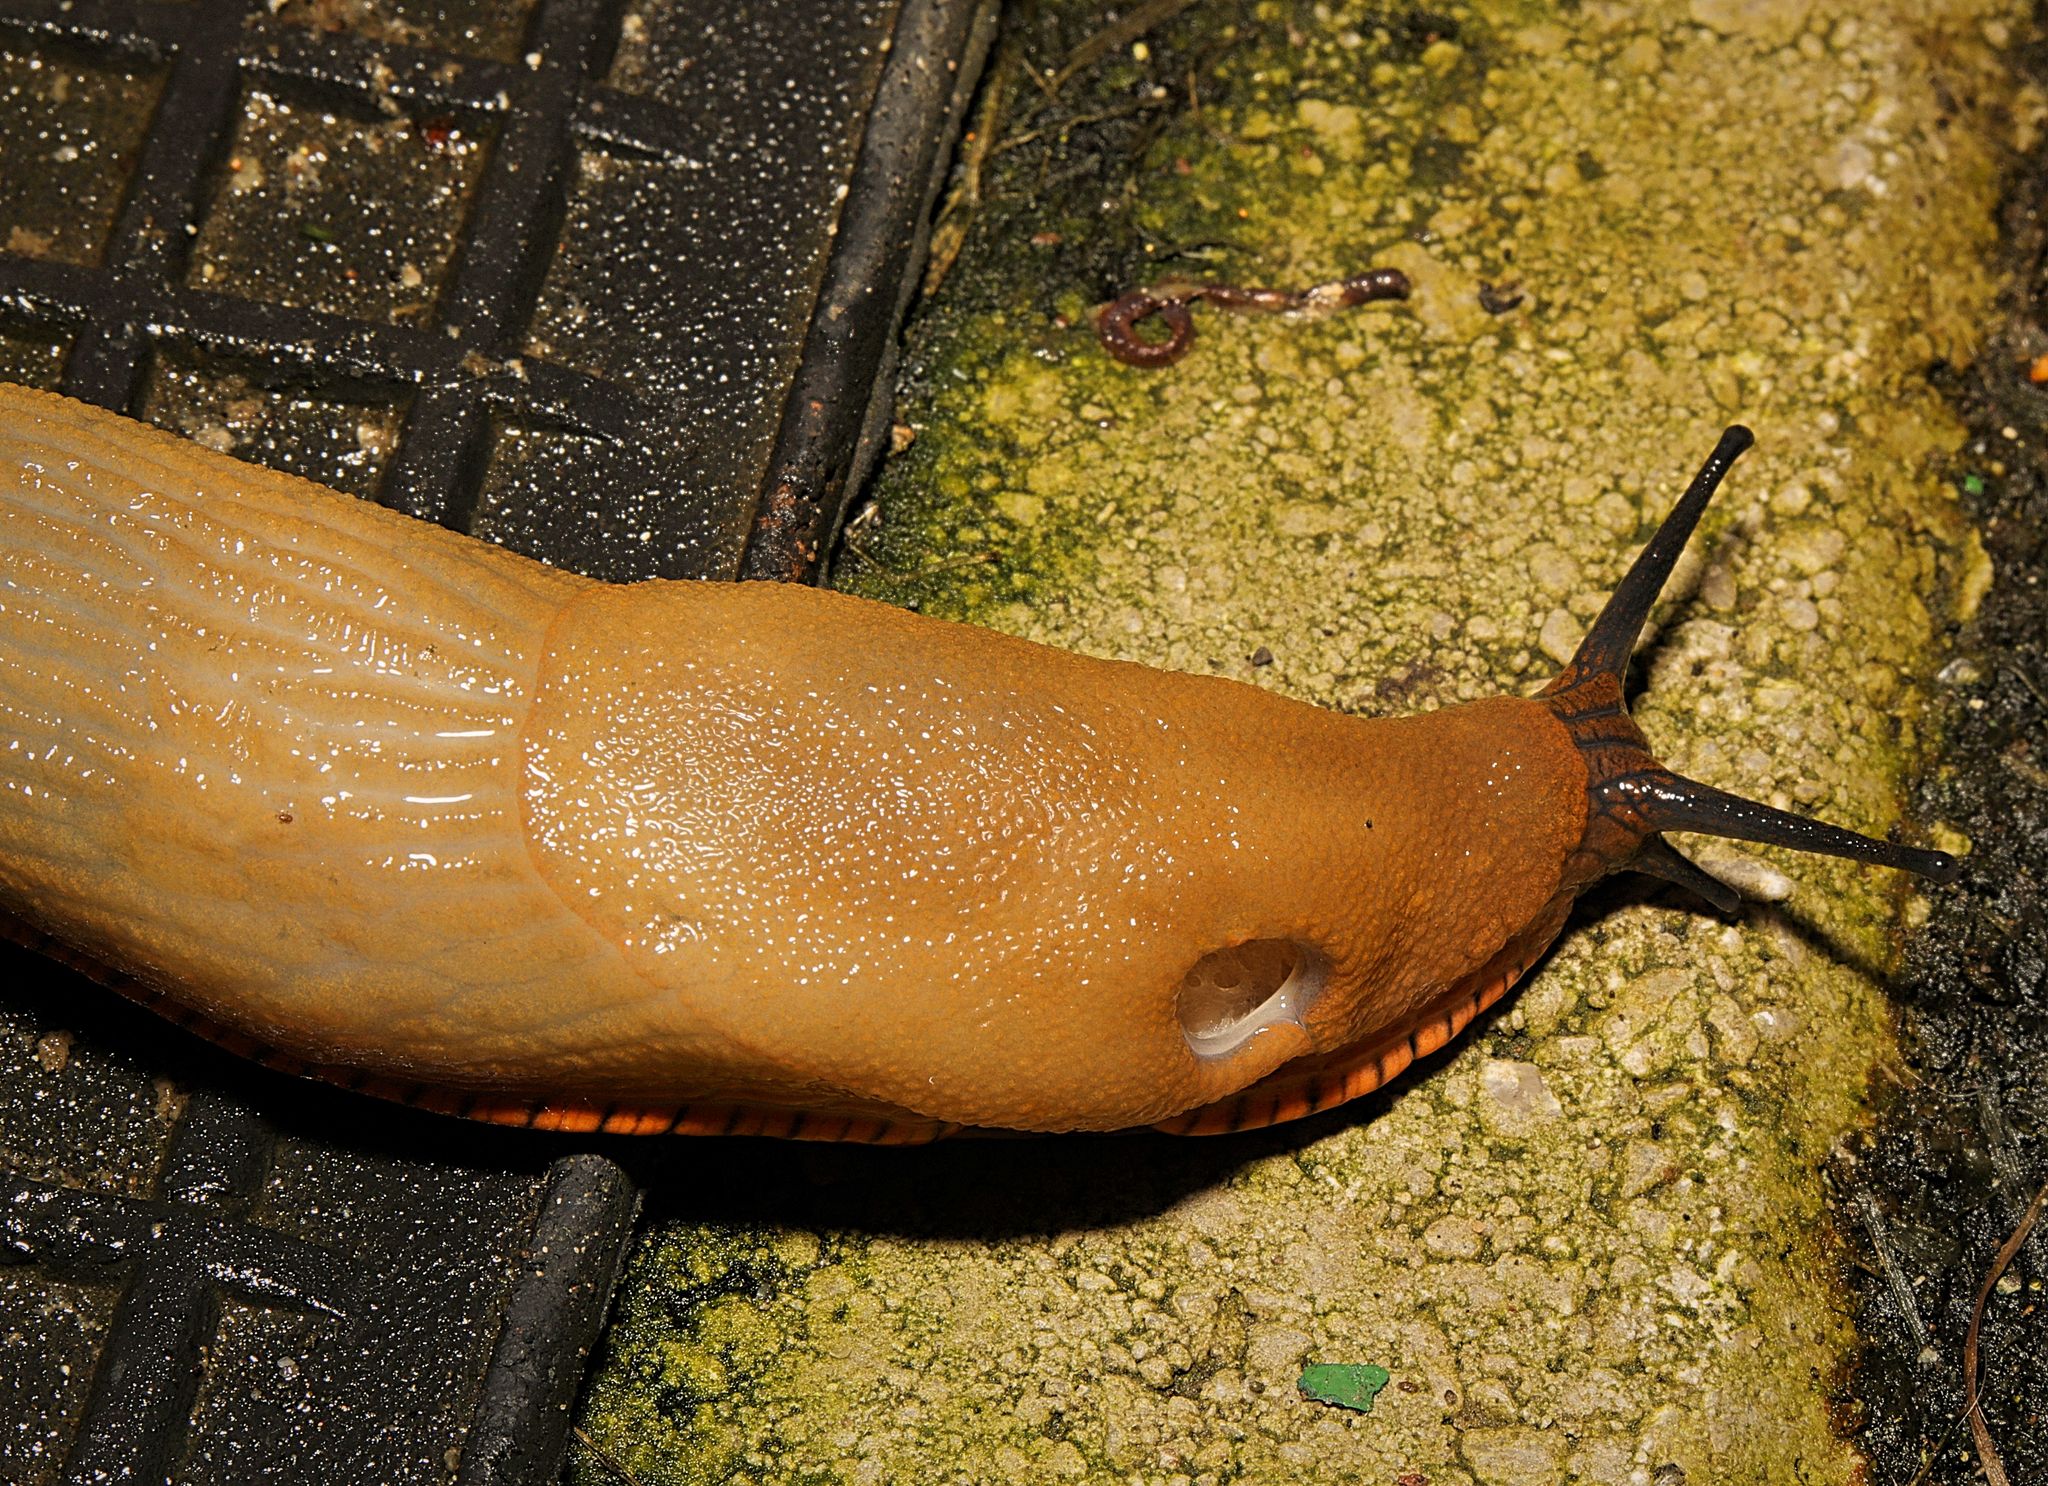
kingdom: Animalia
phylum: Mollusca
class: Gastropoda
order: Stylommatophora
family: Arionidae
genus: Arion
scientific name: Arion rufus
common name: Chocolate arion
